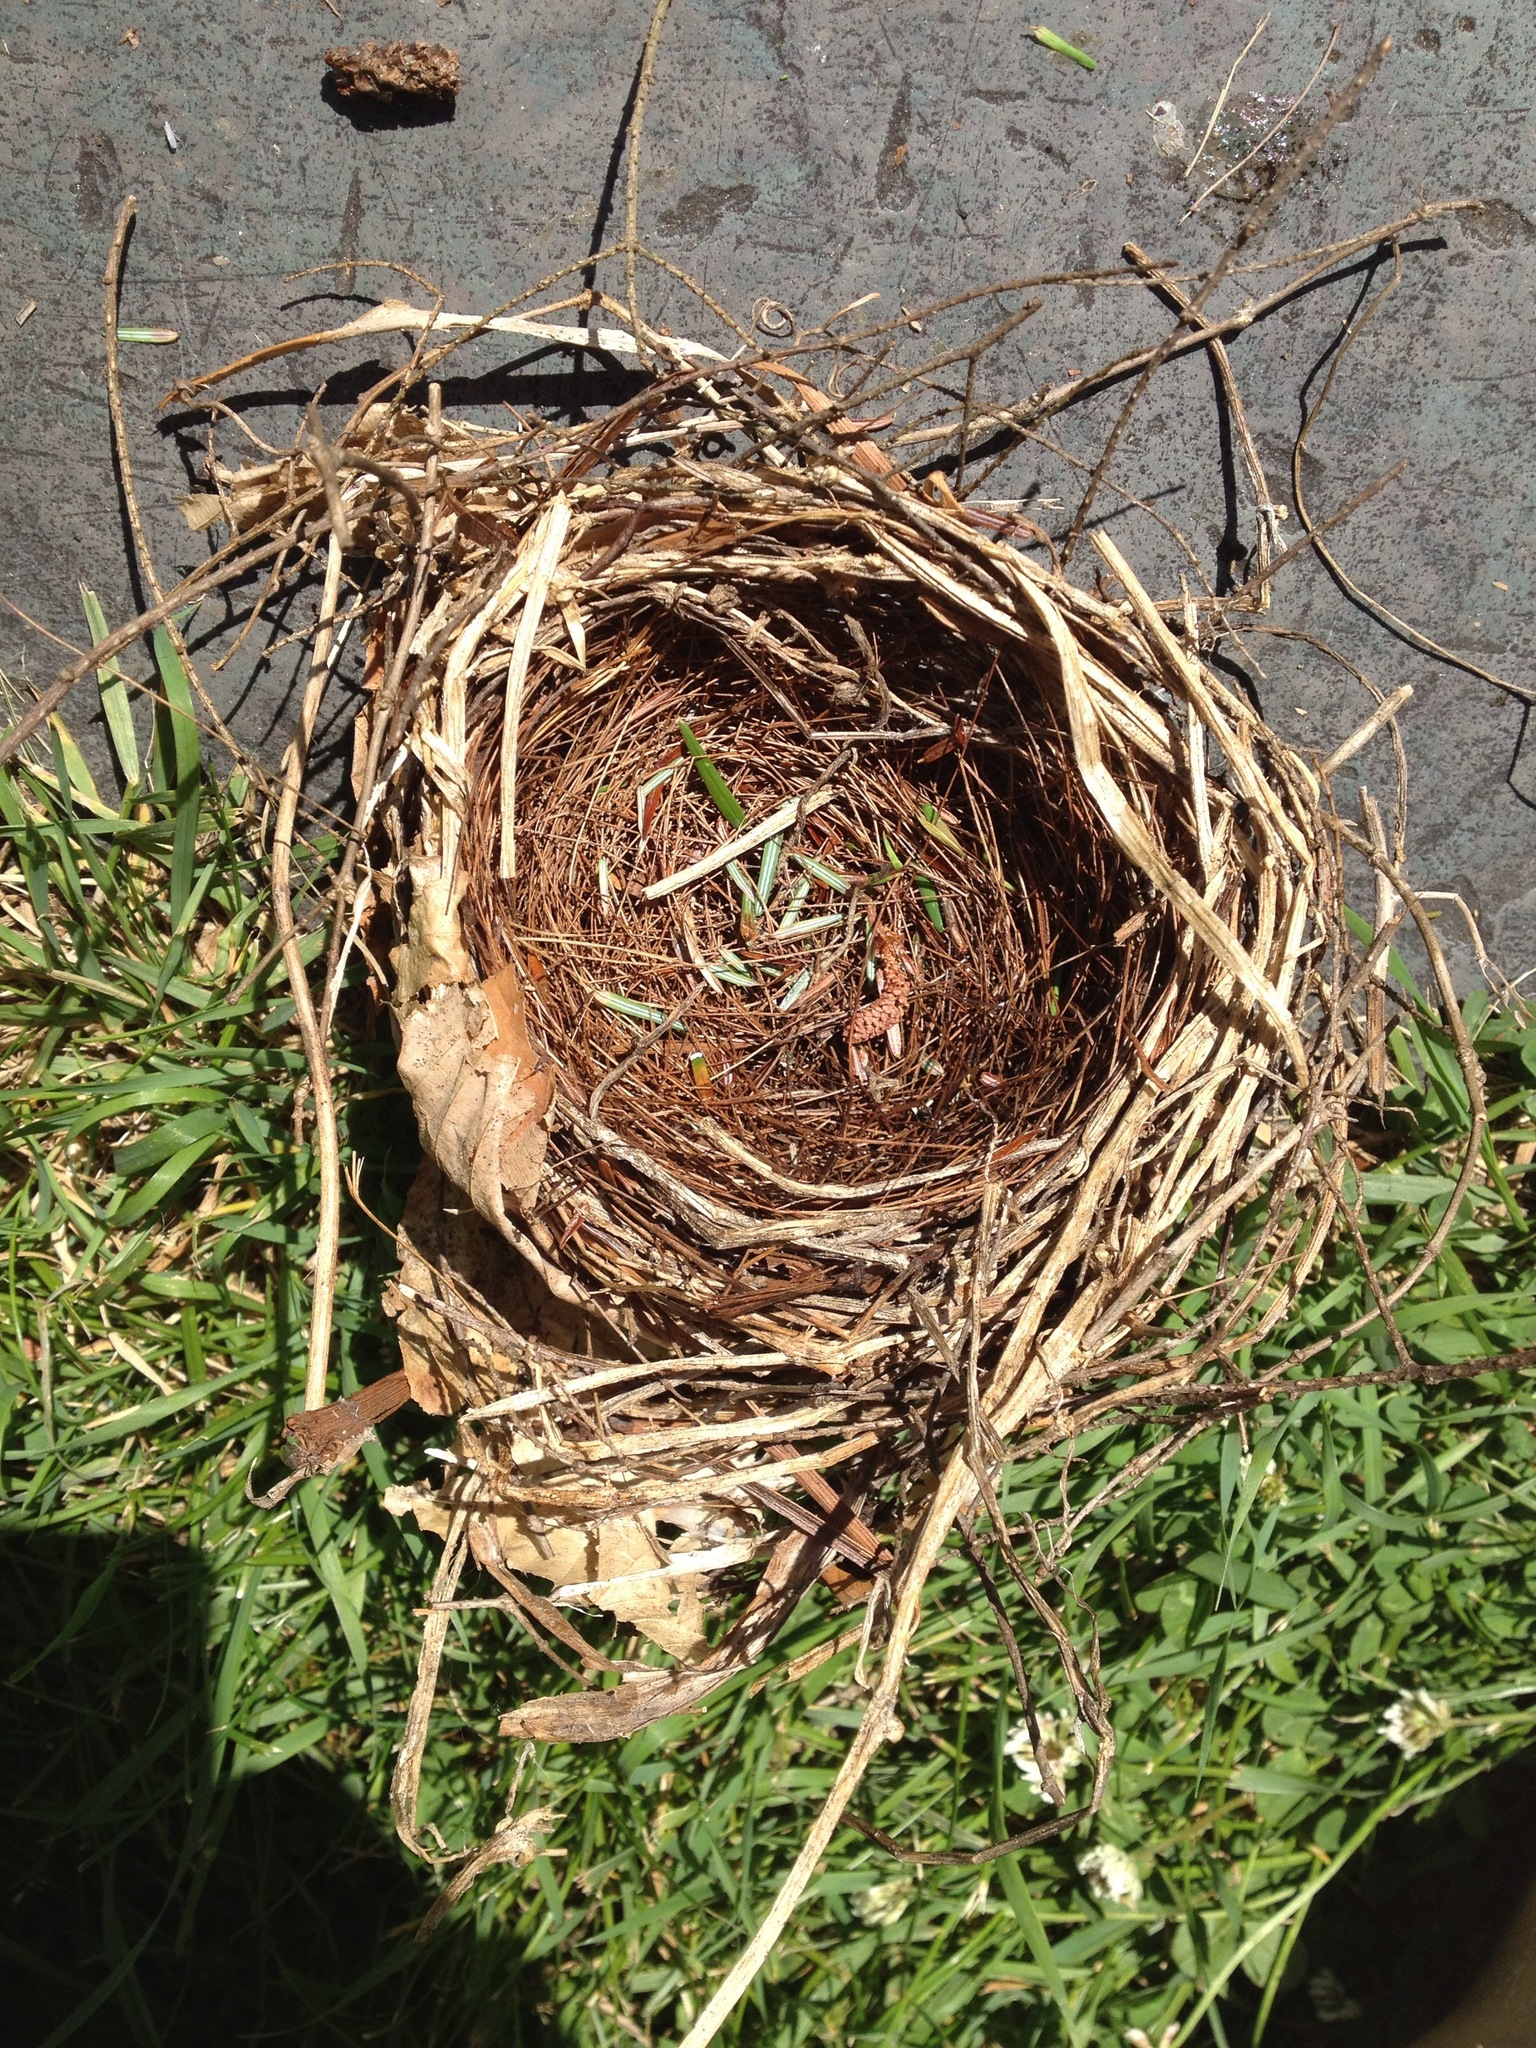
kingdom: Animalia
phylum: Chordata
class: Aves
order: Passeriformes
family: Cardinalidae
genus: Cardinalis
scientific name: Cardinalis cardinalis
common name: Northern cardinal
